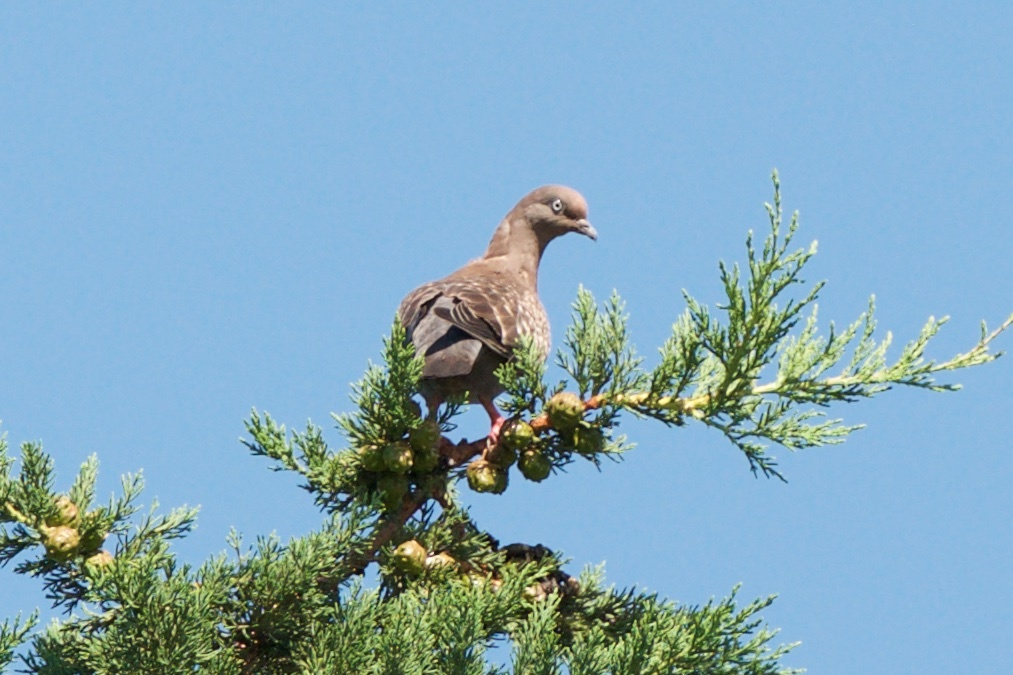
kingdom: Animalia
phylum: Chordata
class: Aves
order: Columbiformes
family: Columbidae
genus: Patagioenas
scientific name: Patagioenas maculosa
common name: Spot-winged pigeon
